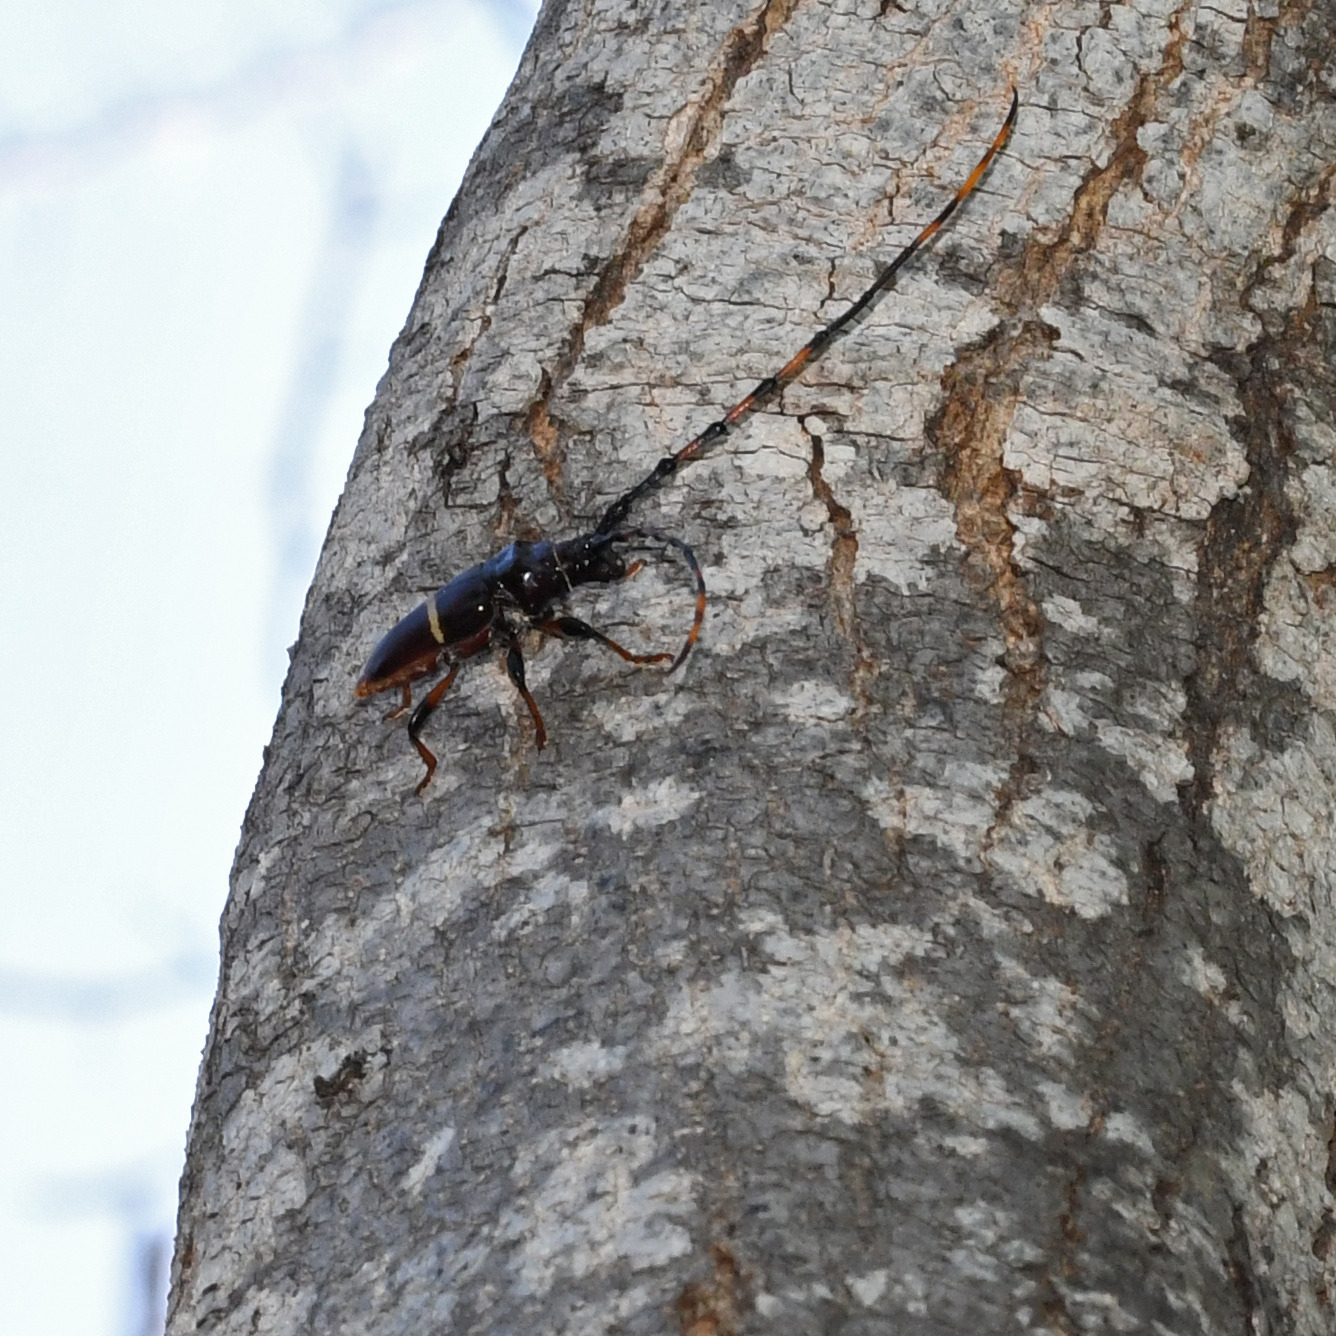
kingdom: Animalia
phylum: Arthropoda
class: Insecta
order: Coleoptera
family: Cerambycidae
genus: Trachyderes
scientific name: Trachyderes succinctus
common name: Mango longhorn
